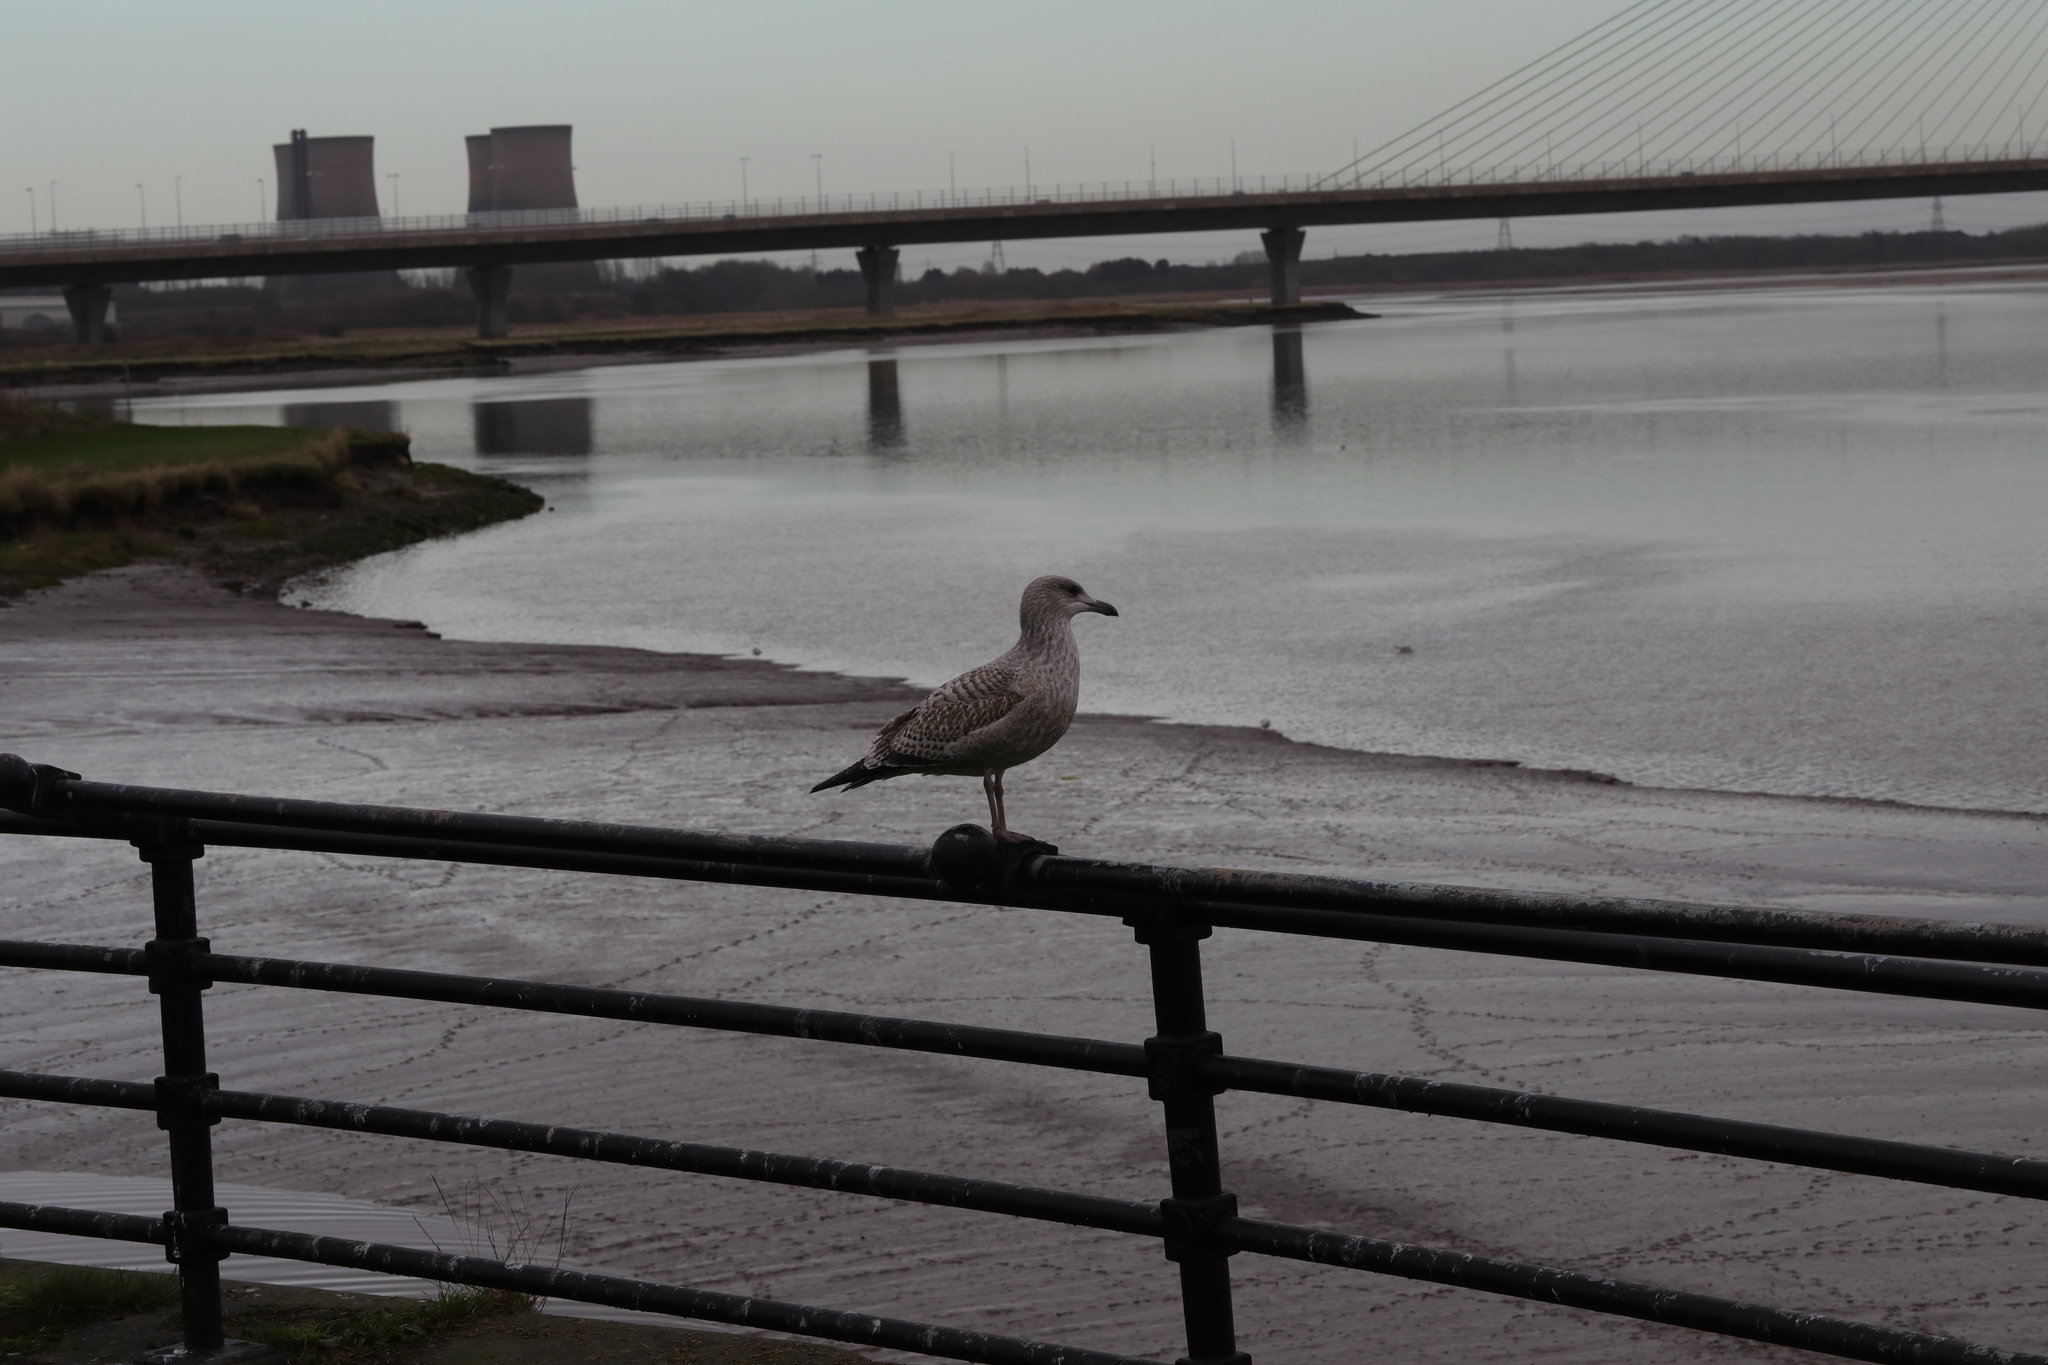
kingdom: Animalia
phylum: Chordata
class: Aves
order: Charadriiformes
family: Laridae
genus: Larus
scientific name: Larus argentatus
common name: Herring gull
